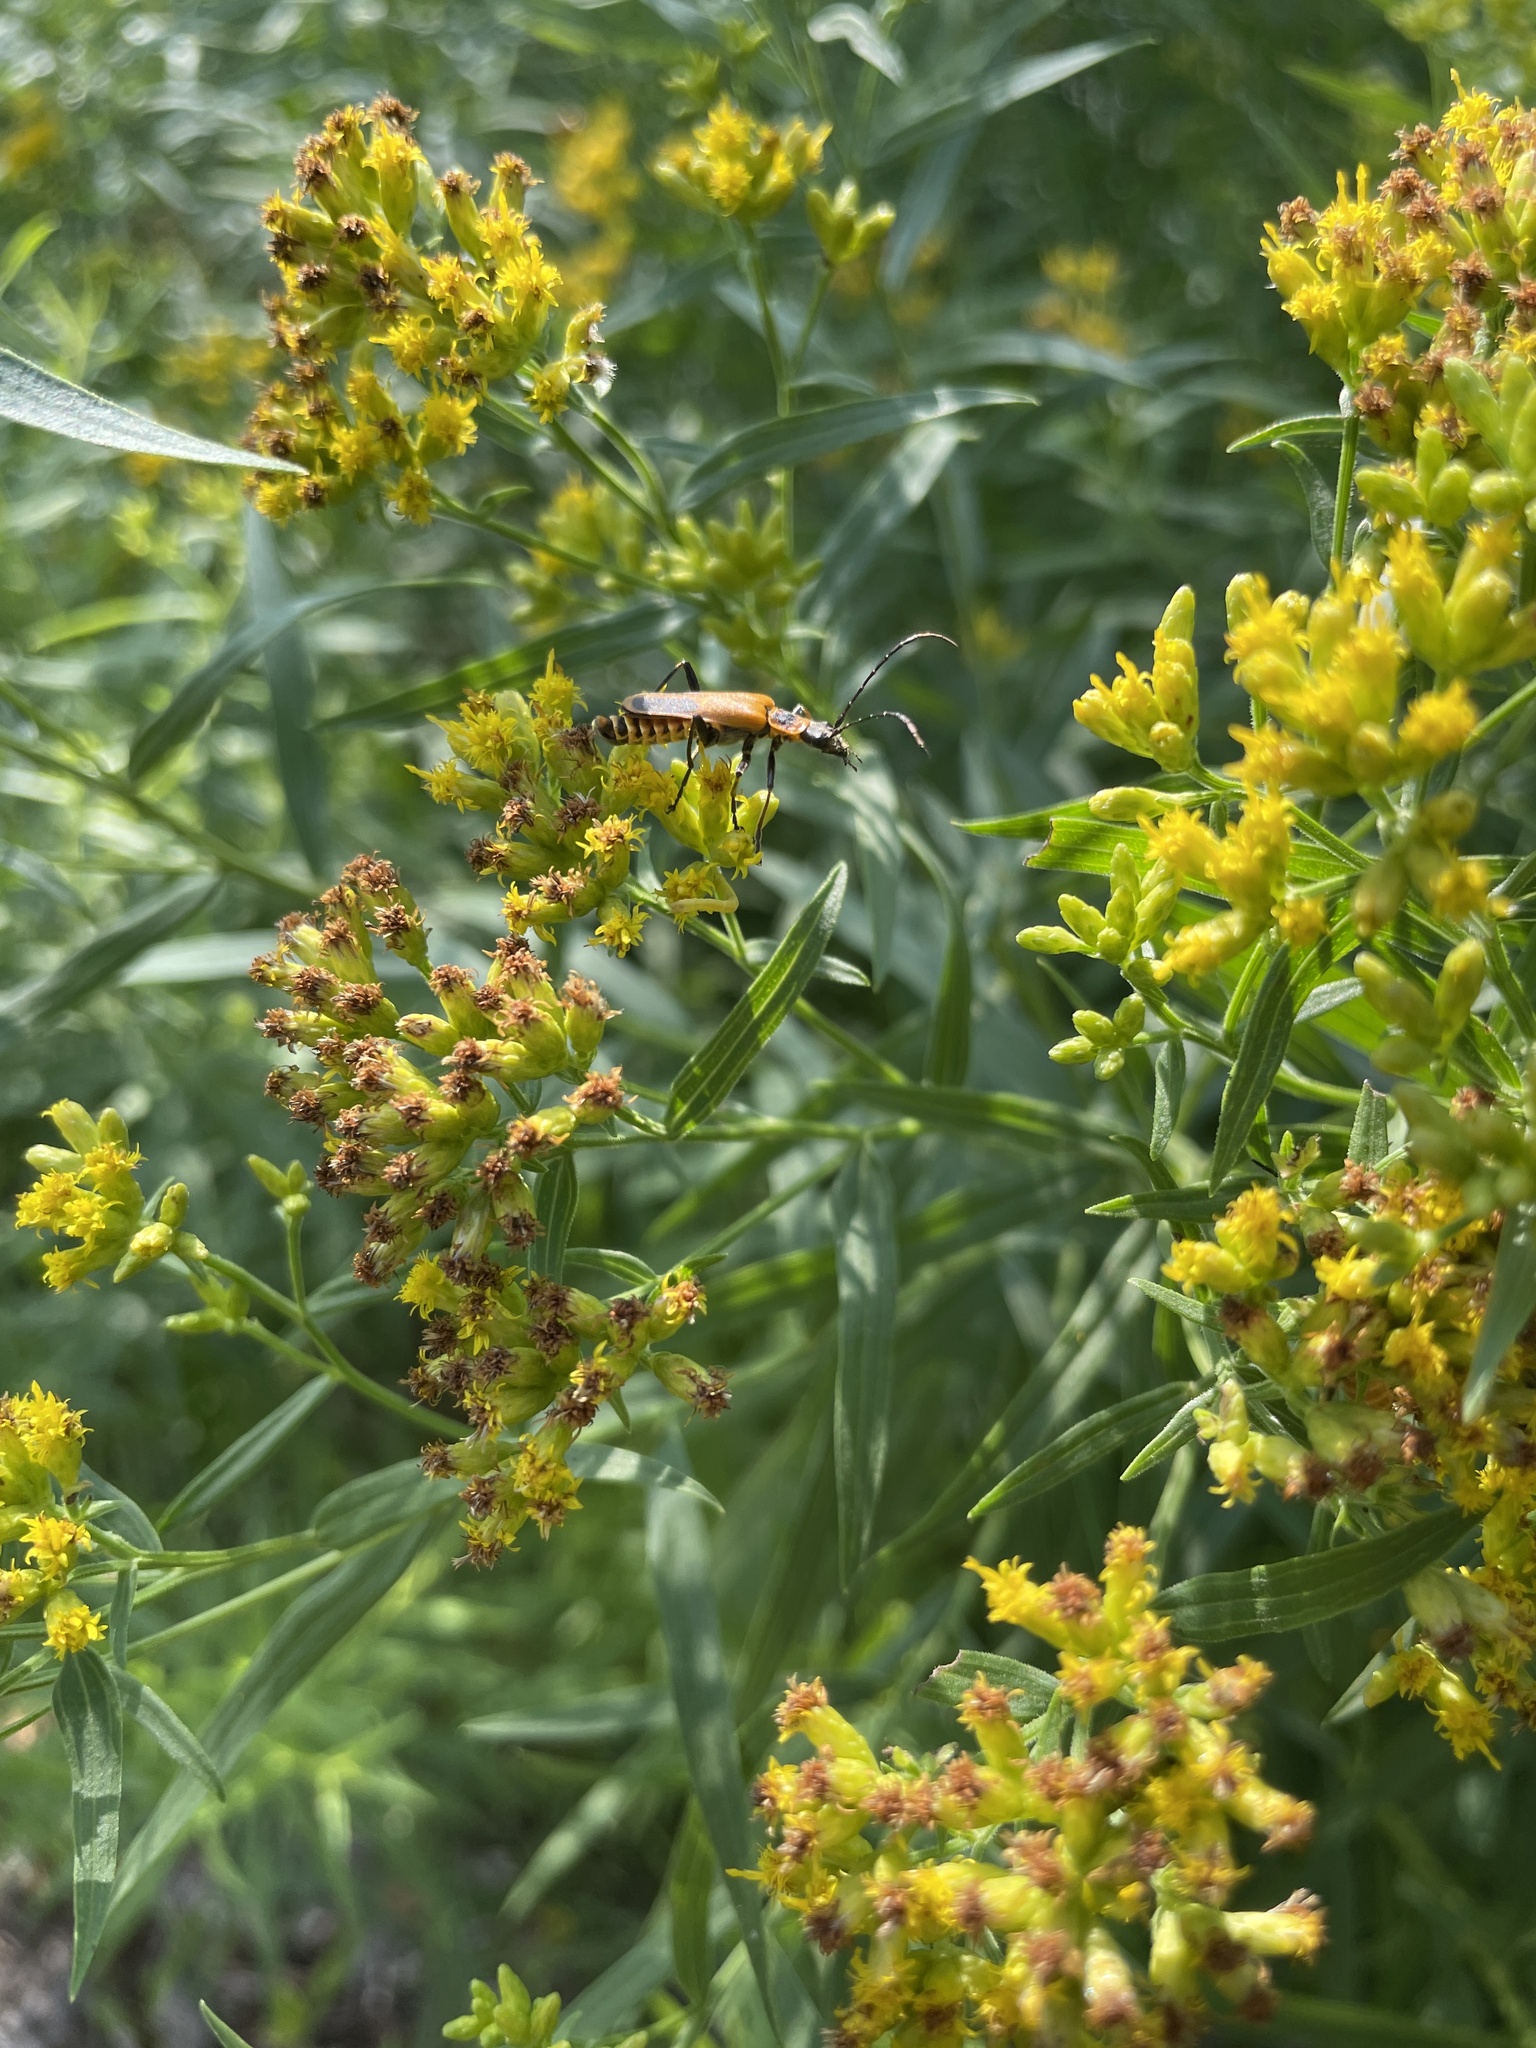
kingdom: Animalia
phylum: Arthropoda
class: Insecta
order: Coleoptera
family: Cantharidae
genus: Chauliognathus
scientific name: Chauliognathus pensylvanicus
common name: Goldenrod soldier beetle
